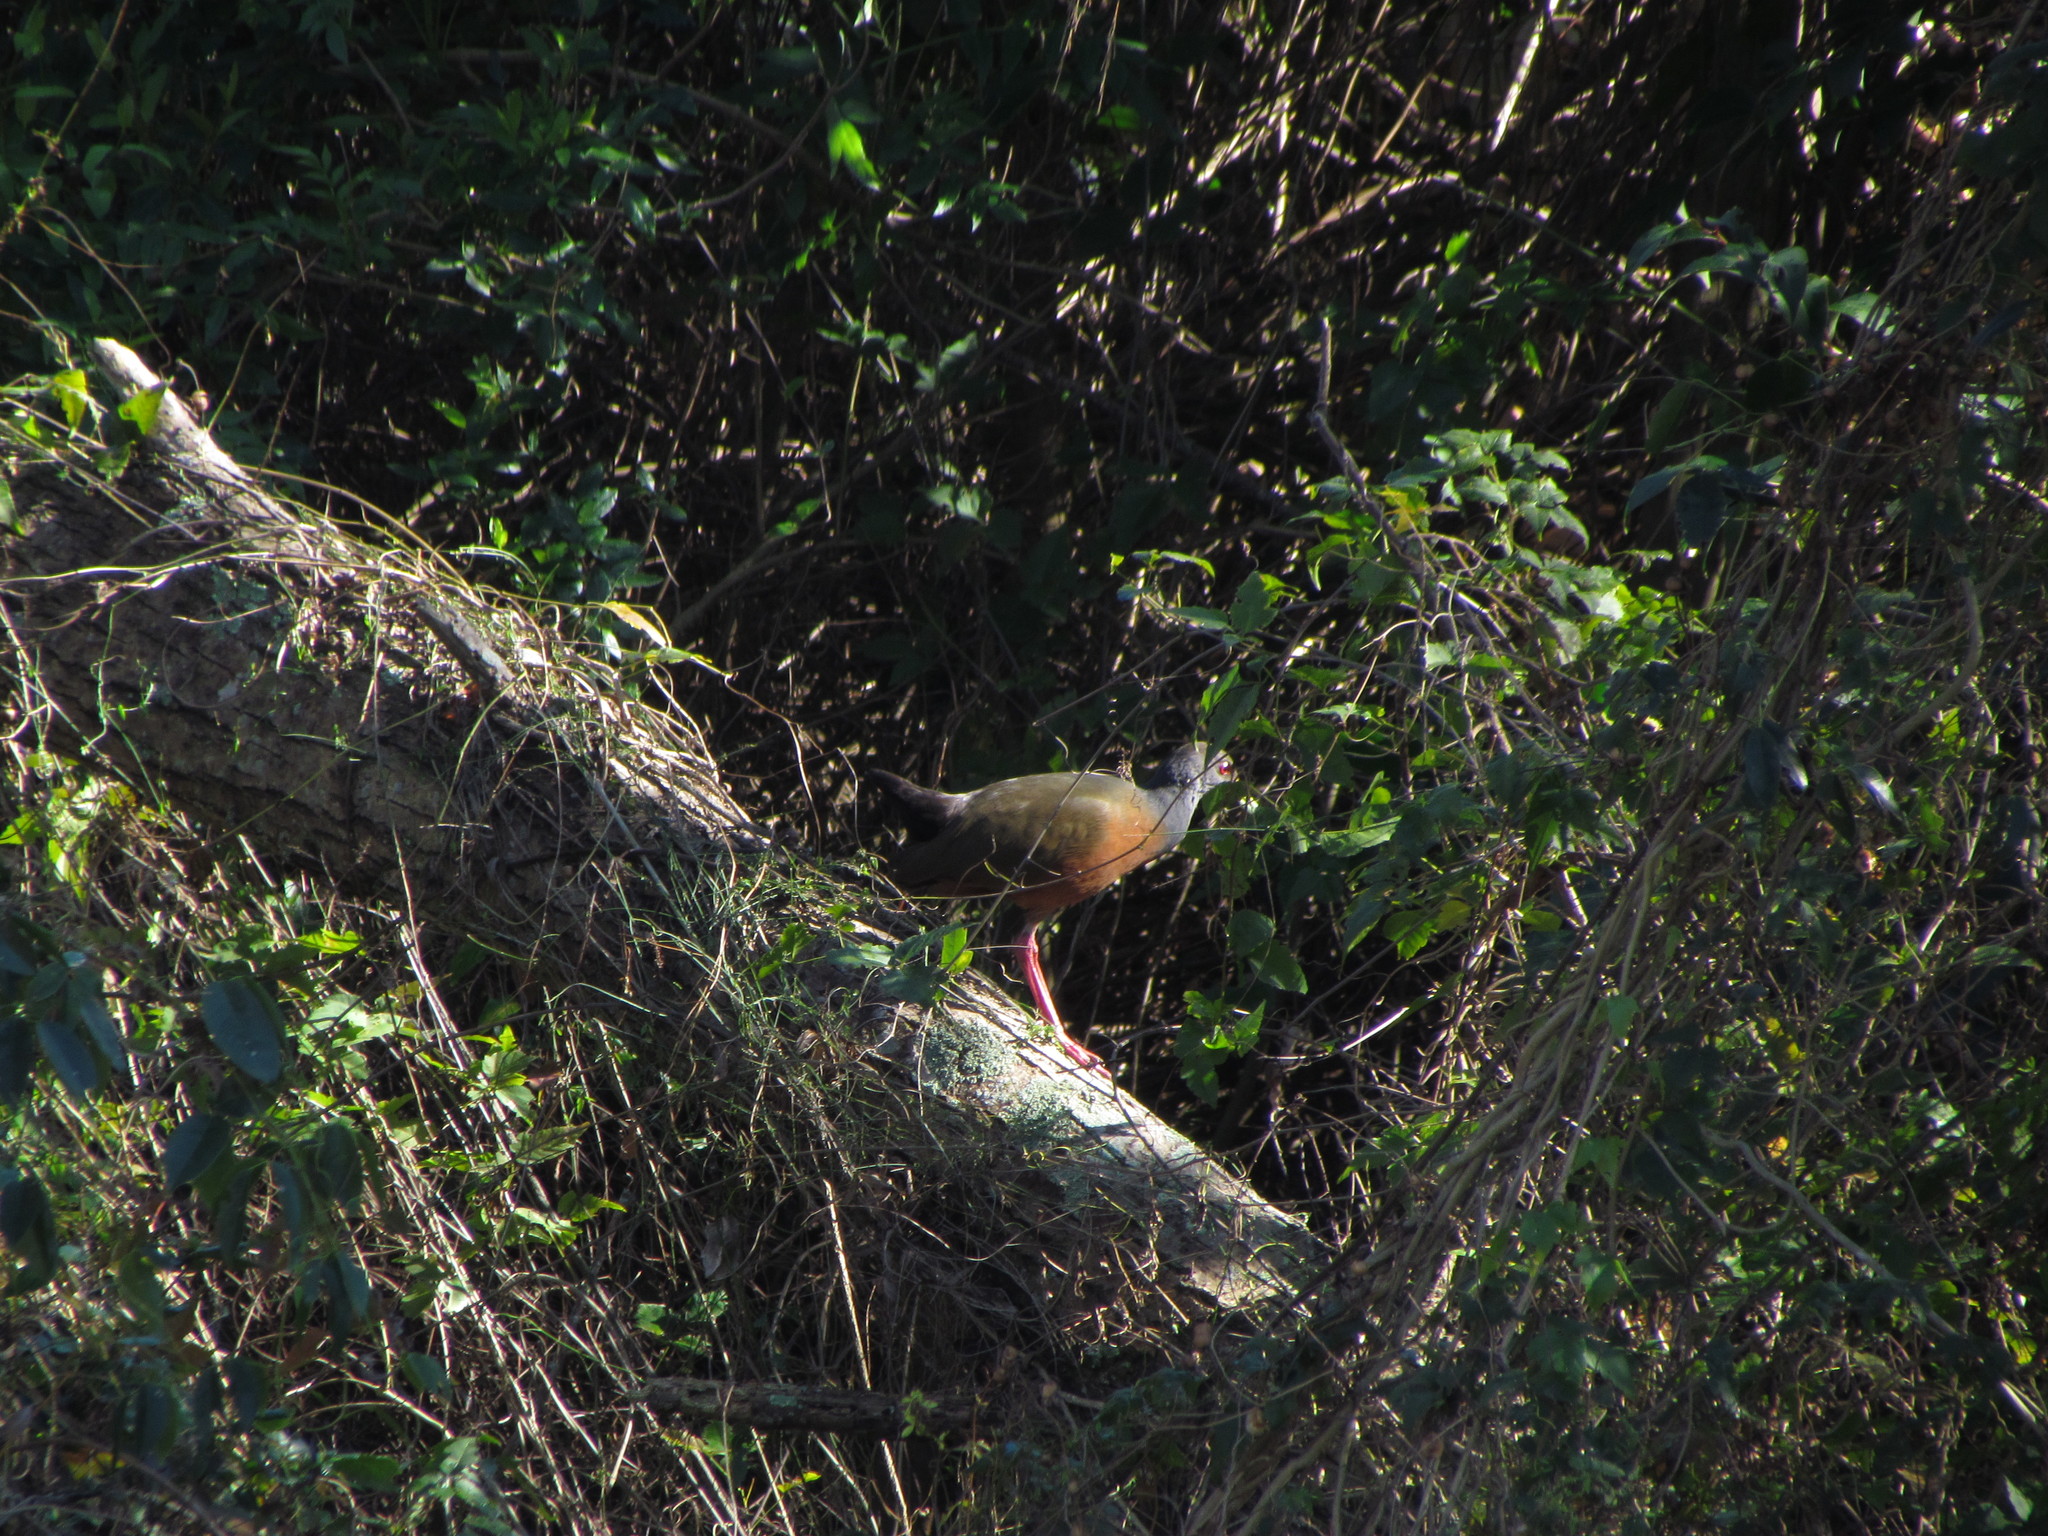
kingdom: Animalia
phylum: Chordata
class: Aves
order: Gruiformes
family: Rallidae
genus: Aramides
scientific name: Aramides cajanea
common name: Gray-necked wood-rail
